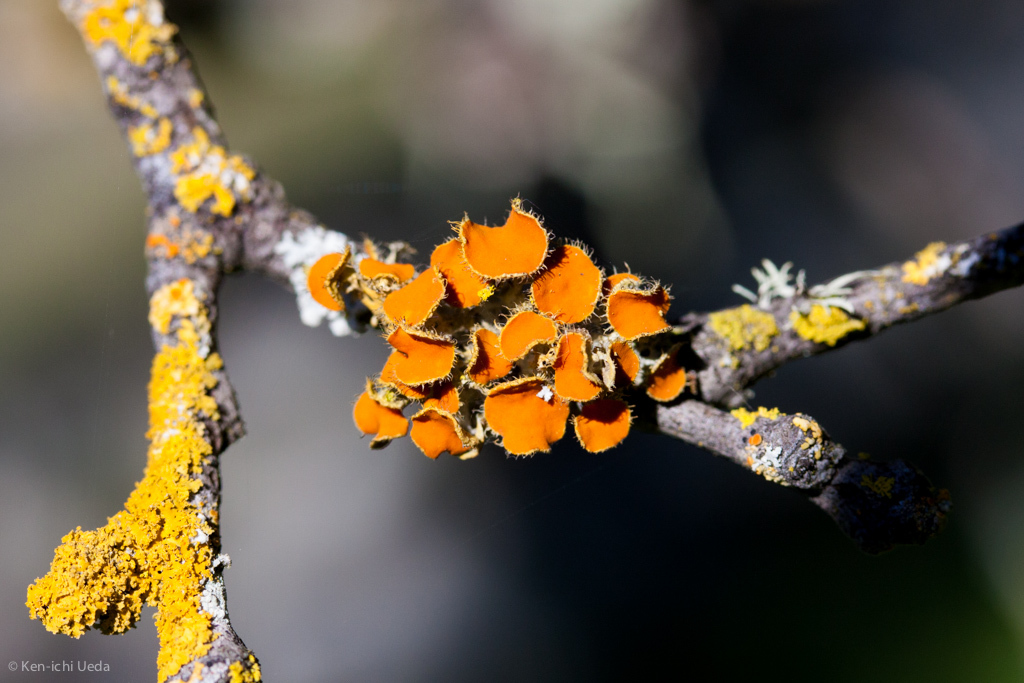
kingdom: Fungi
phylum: Ascomycota
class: Lecanoromycetes
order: Teloschistales
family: Teloschistaceae
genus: Niorma
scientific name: Niorma chrysophthalma
